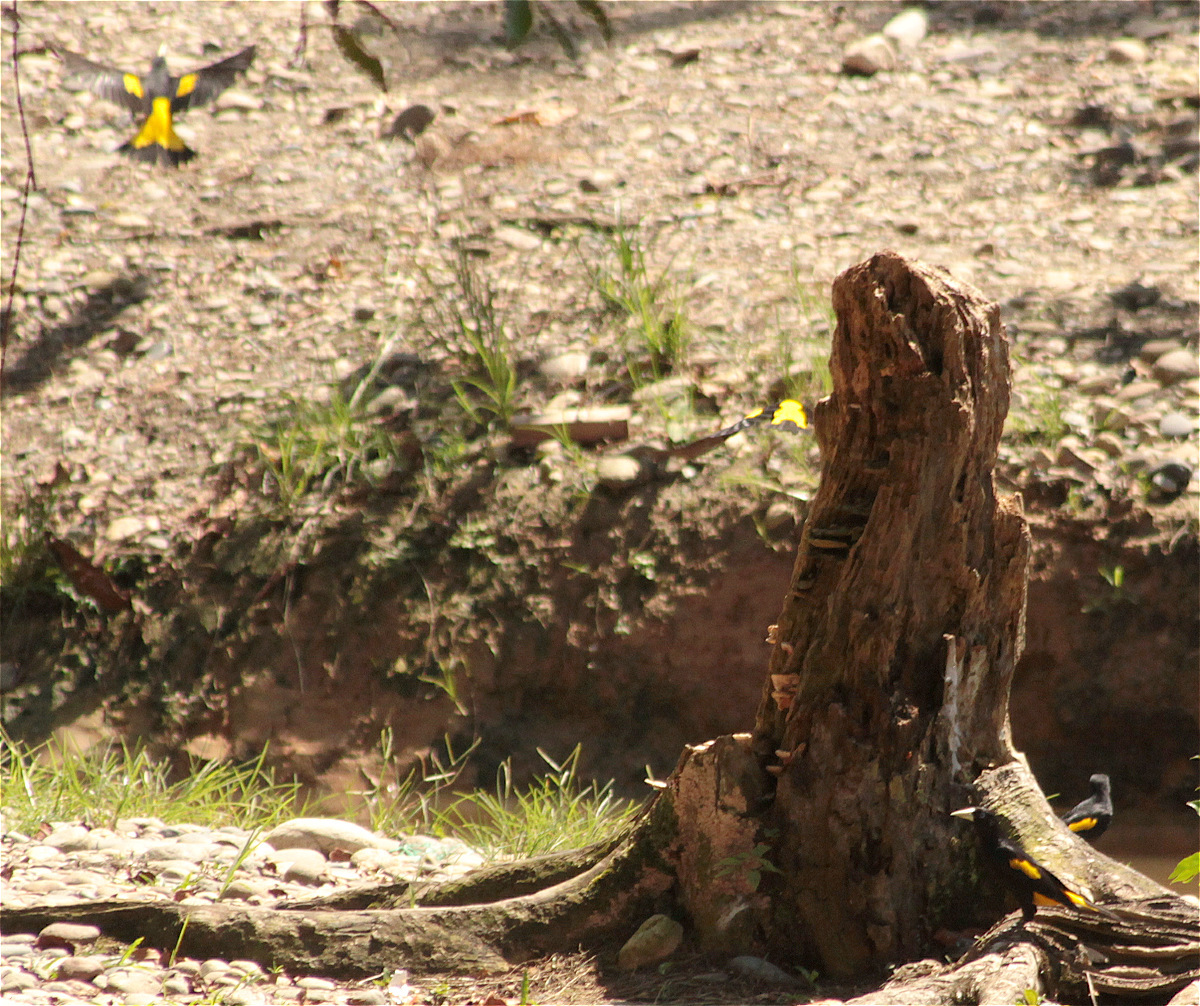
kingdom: Animalia
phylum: Chordata
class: Aves
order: Passeriformes
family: Icteridae
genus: Cacicus
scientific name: Cacicus cela
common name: Yellow-rumped cacique
